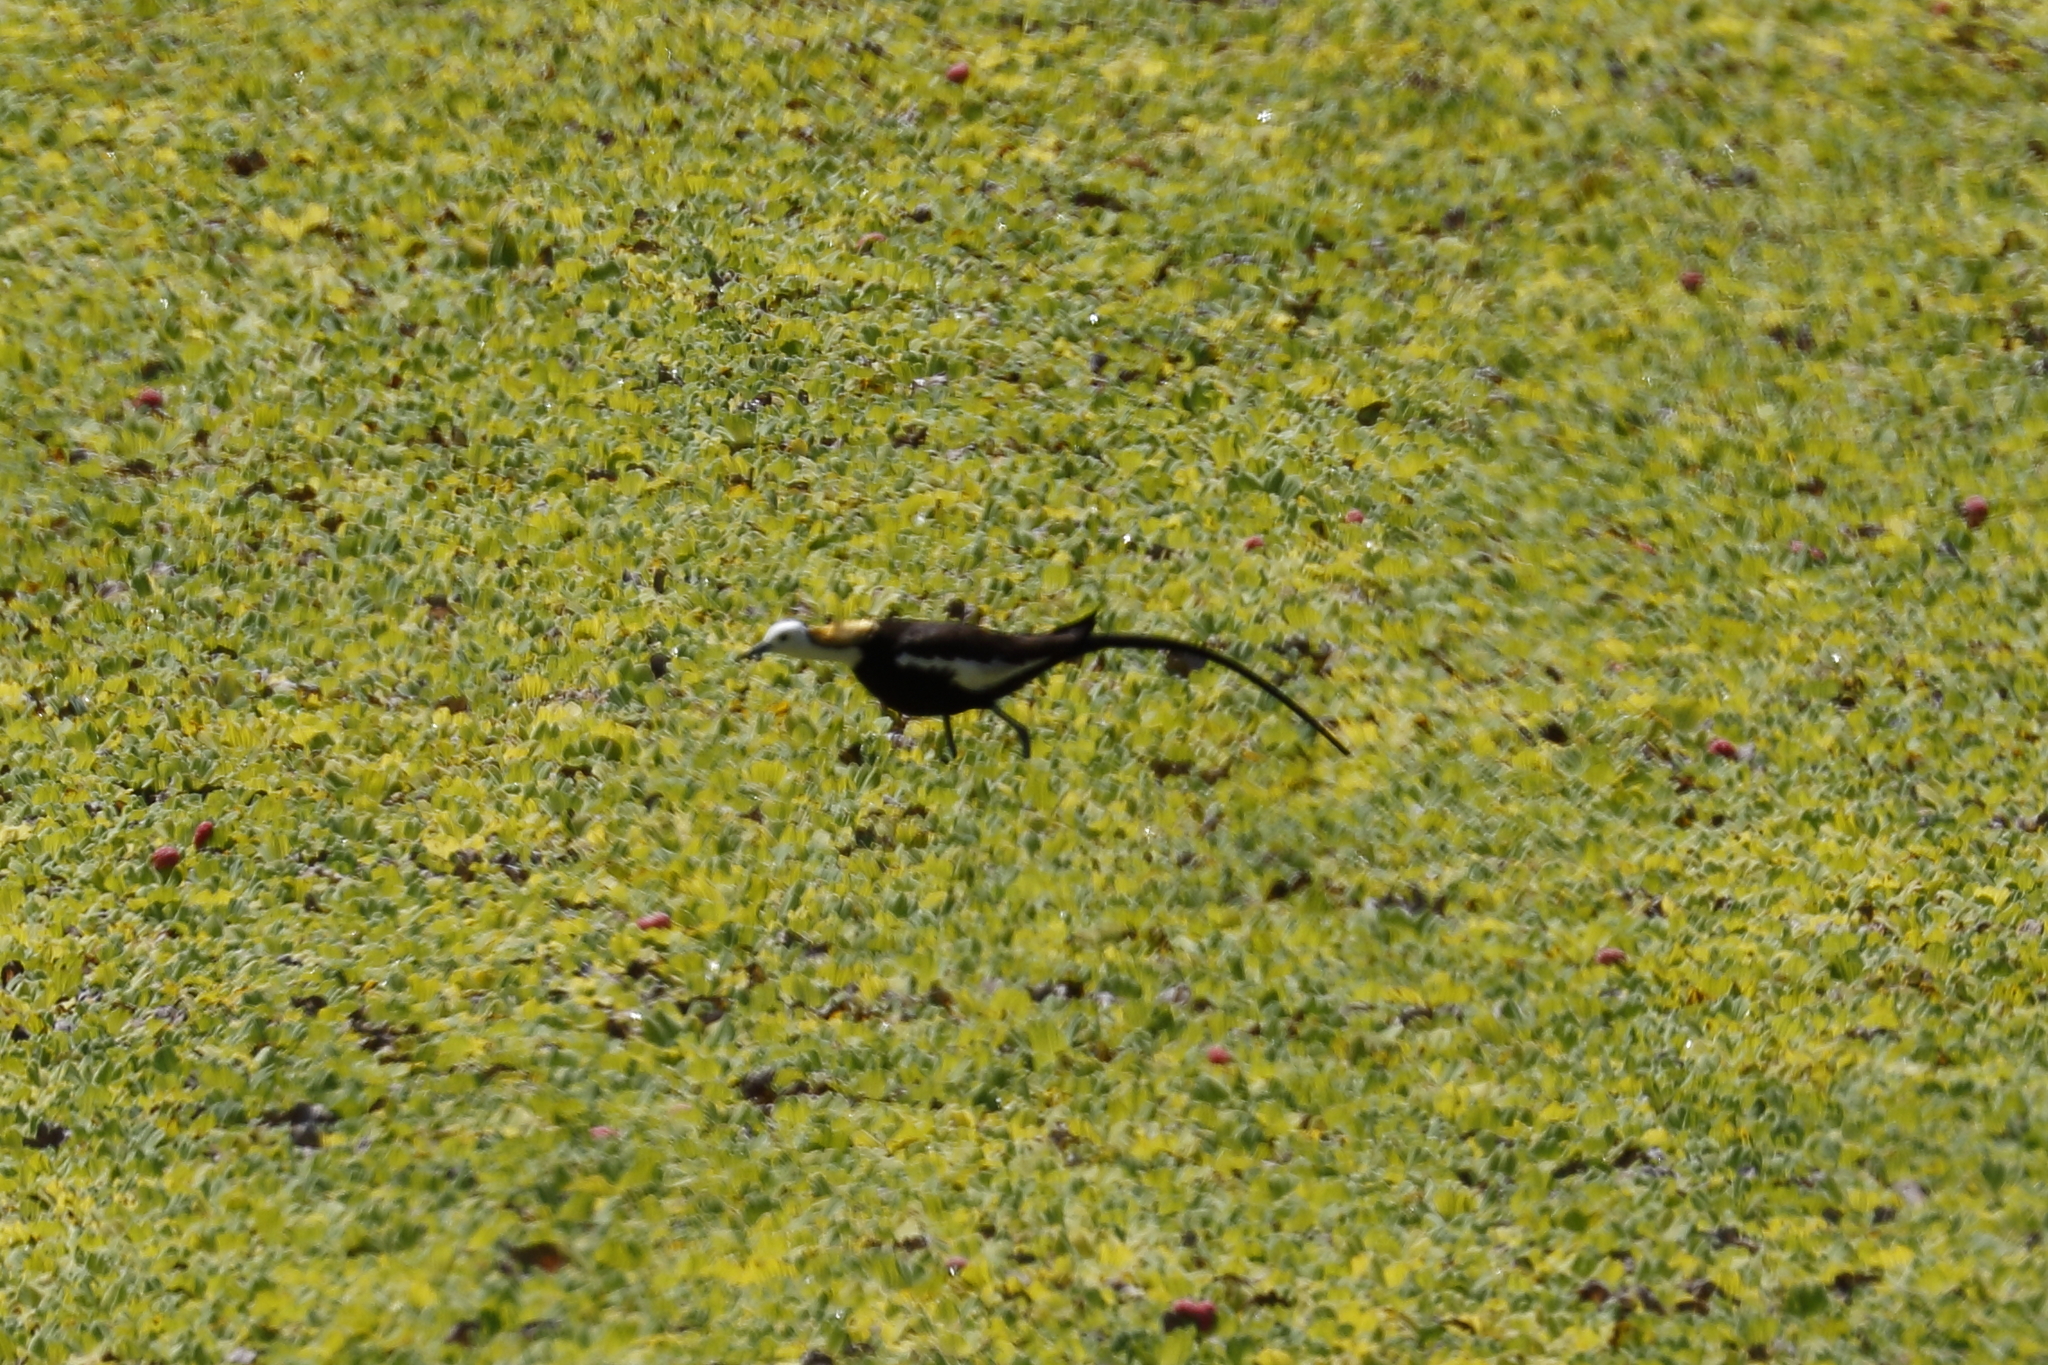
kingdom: Animalia
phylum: Chordata
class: Aves
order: Charadriiformes
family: Jacanidae
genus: Hydrophasianus
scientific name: Hydrophasianus chirurgus
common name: Pheasant-tailed jacana
